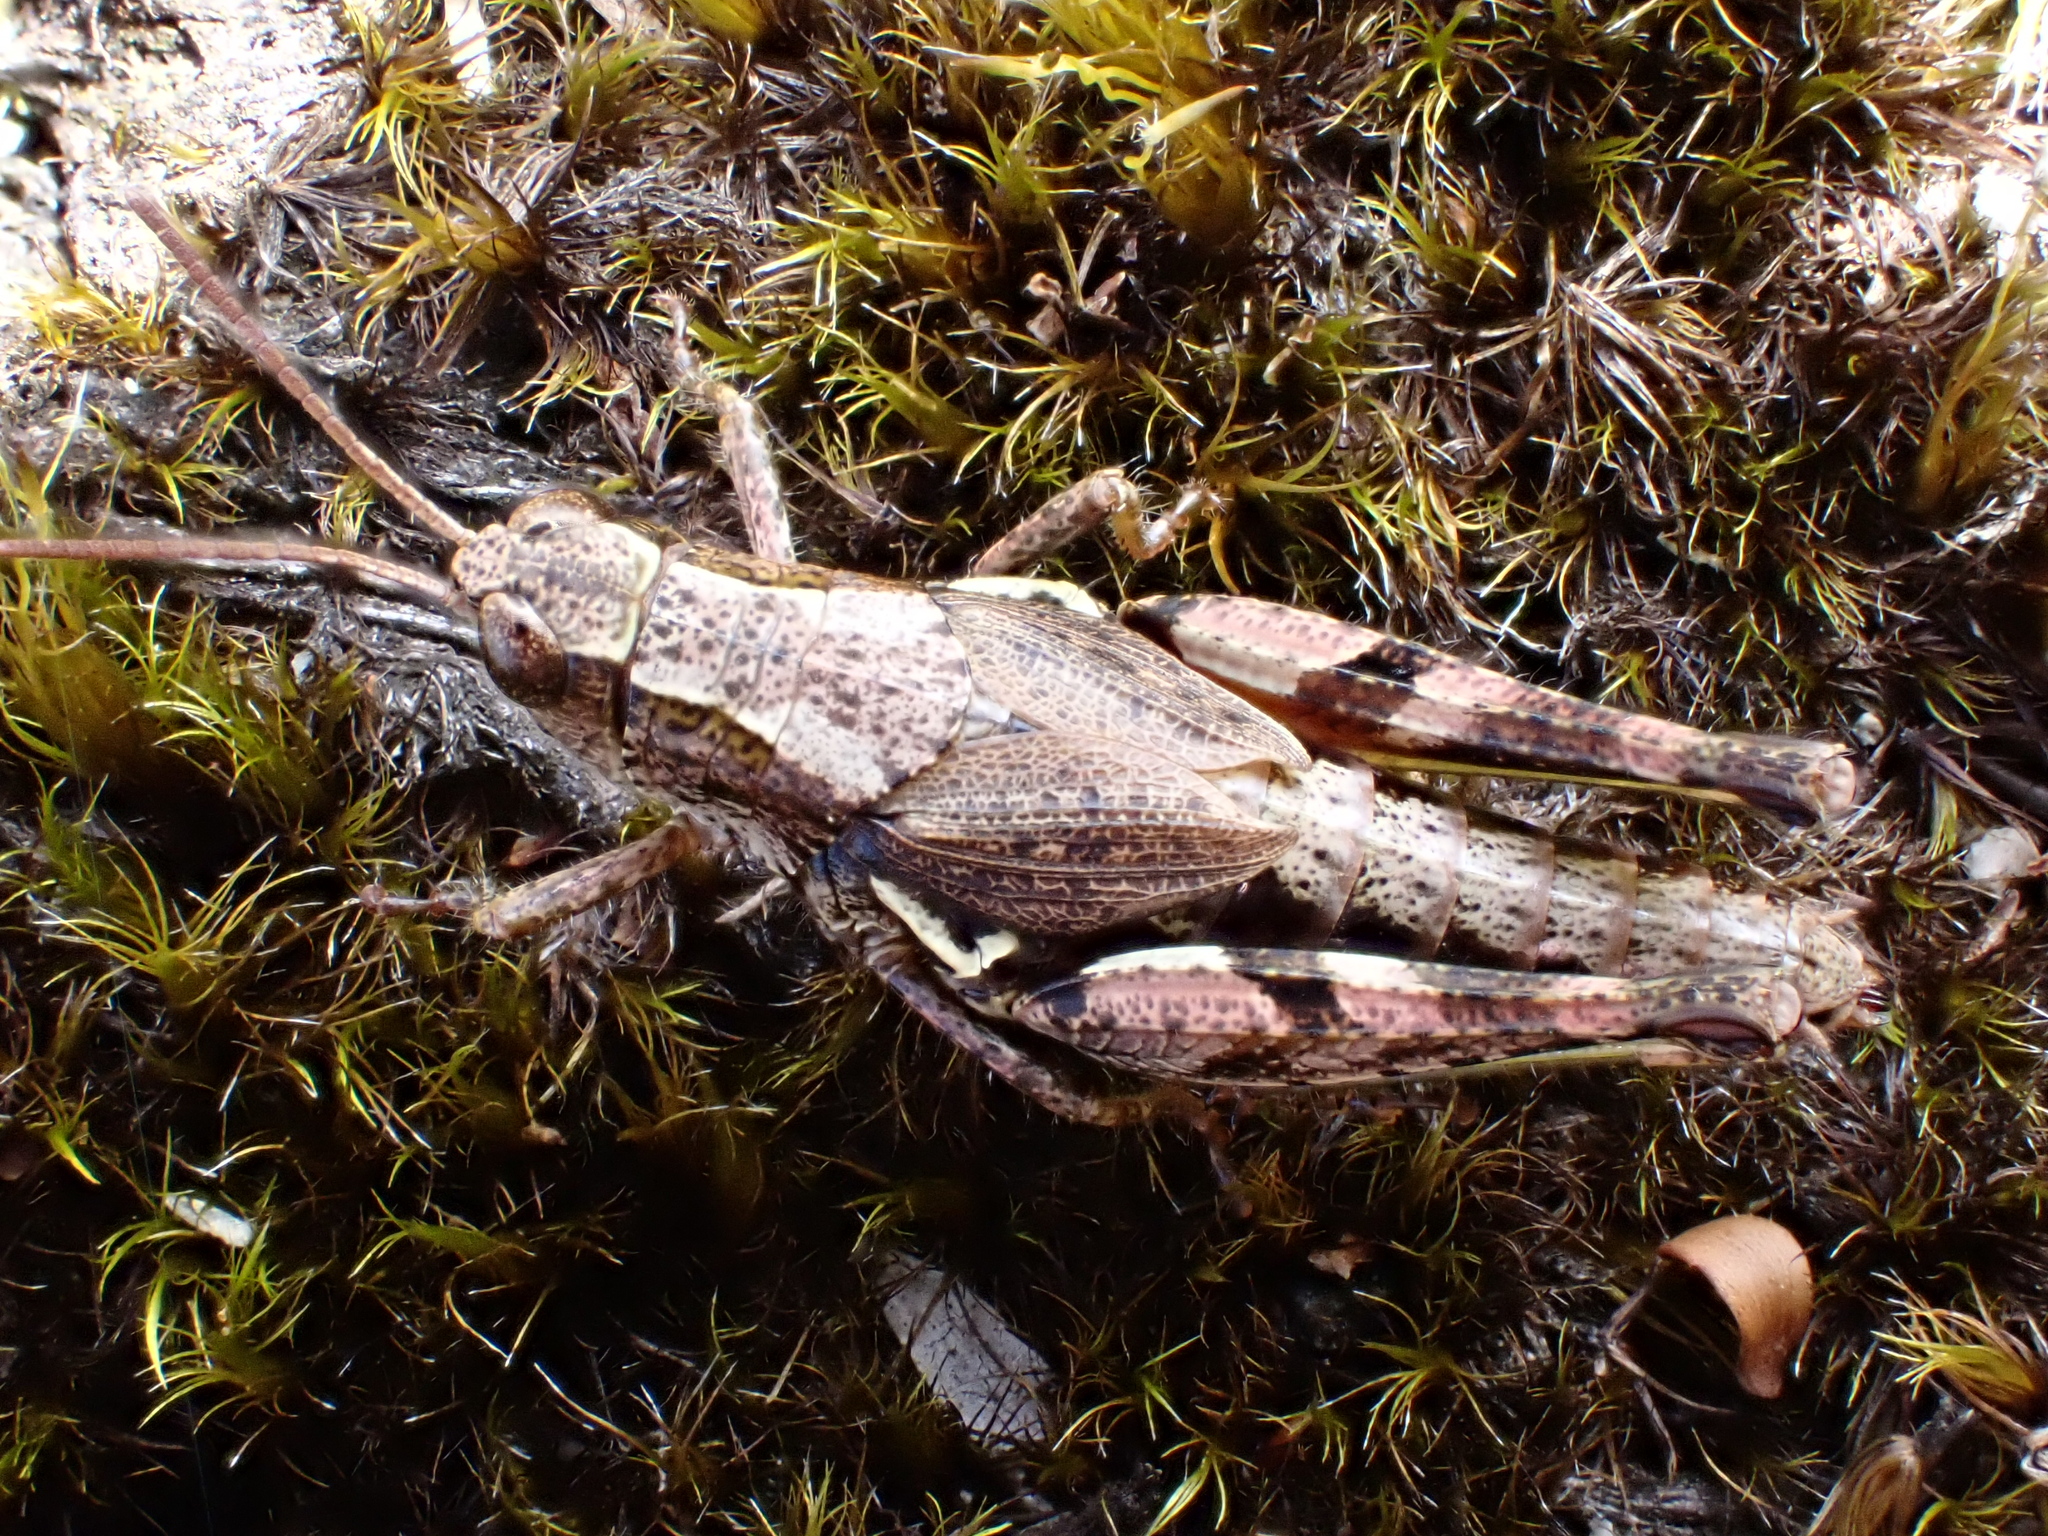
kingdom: Animalia
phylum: Arthropoda
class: Insecta
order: Orthoptera
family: Acrididae
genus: Phaulacridium
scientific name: Phaulacridium marginale
